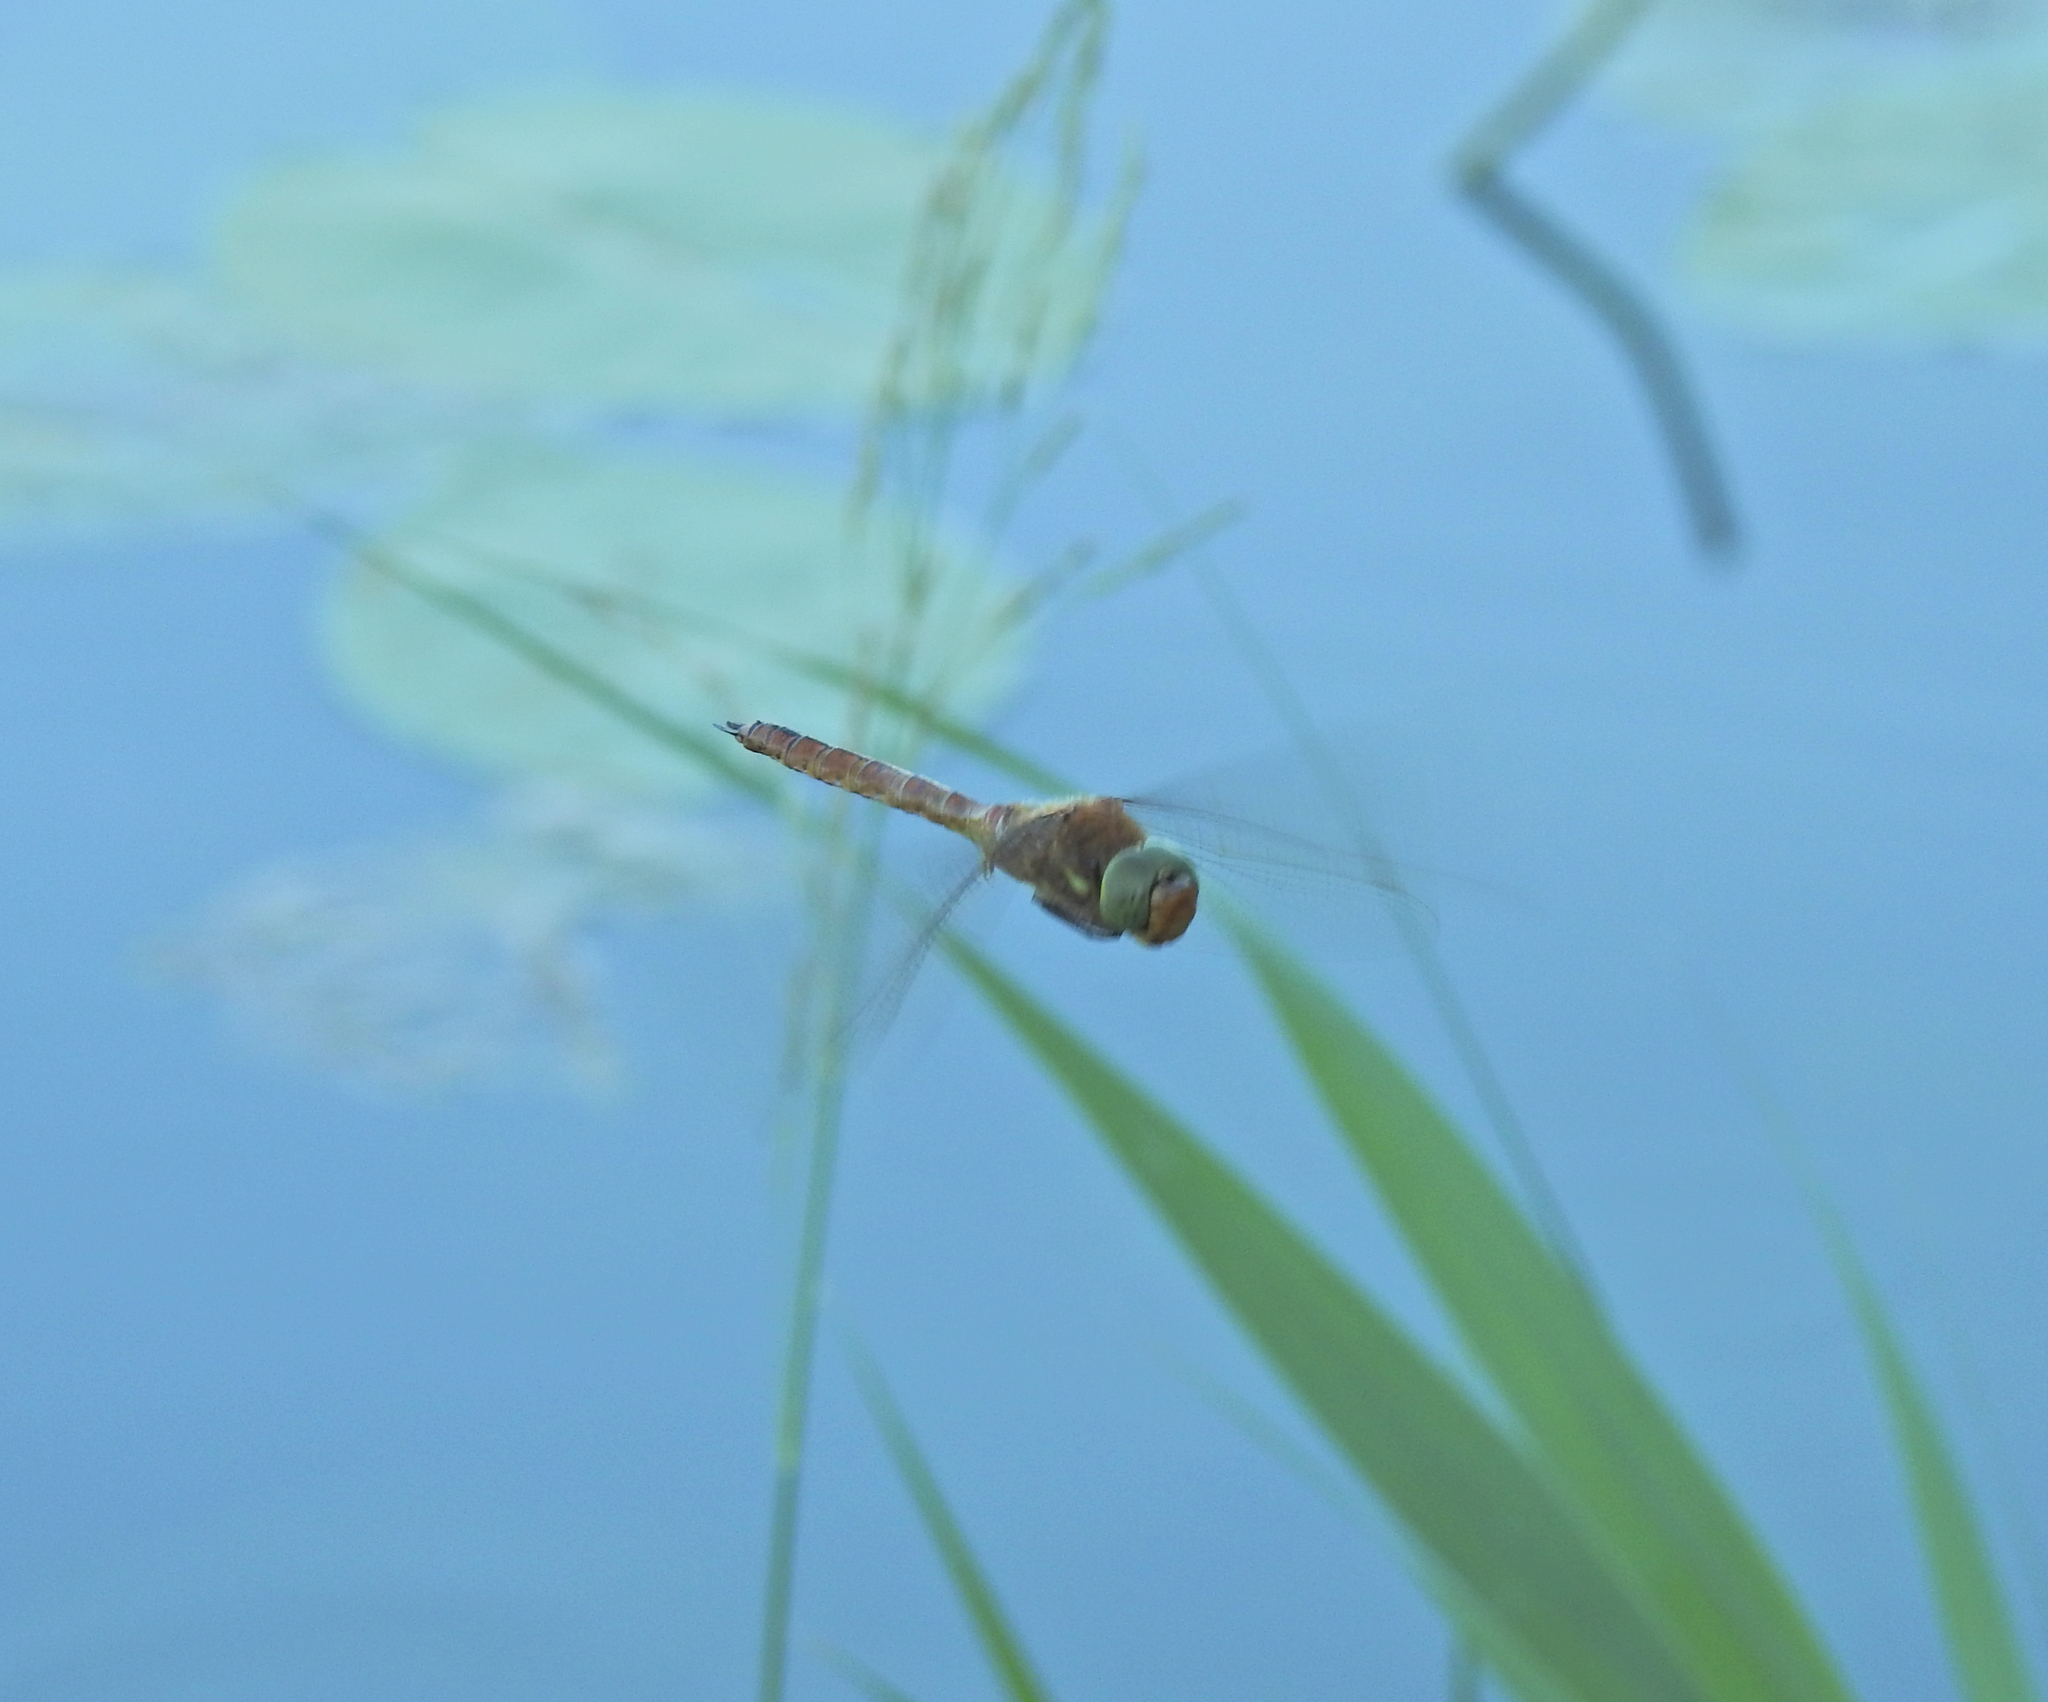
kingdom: Animalia
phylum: Arthropoda
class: Insecta
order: Odonata
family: Aeshnidae
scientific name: Aeshnidae
